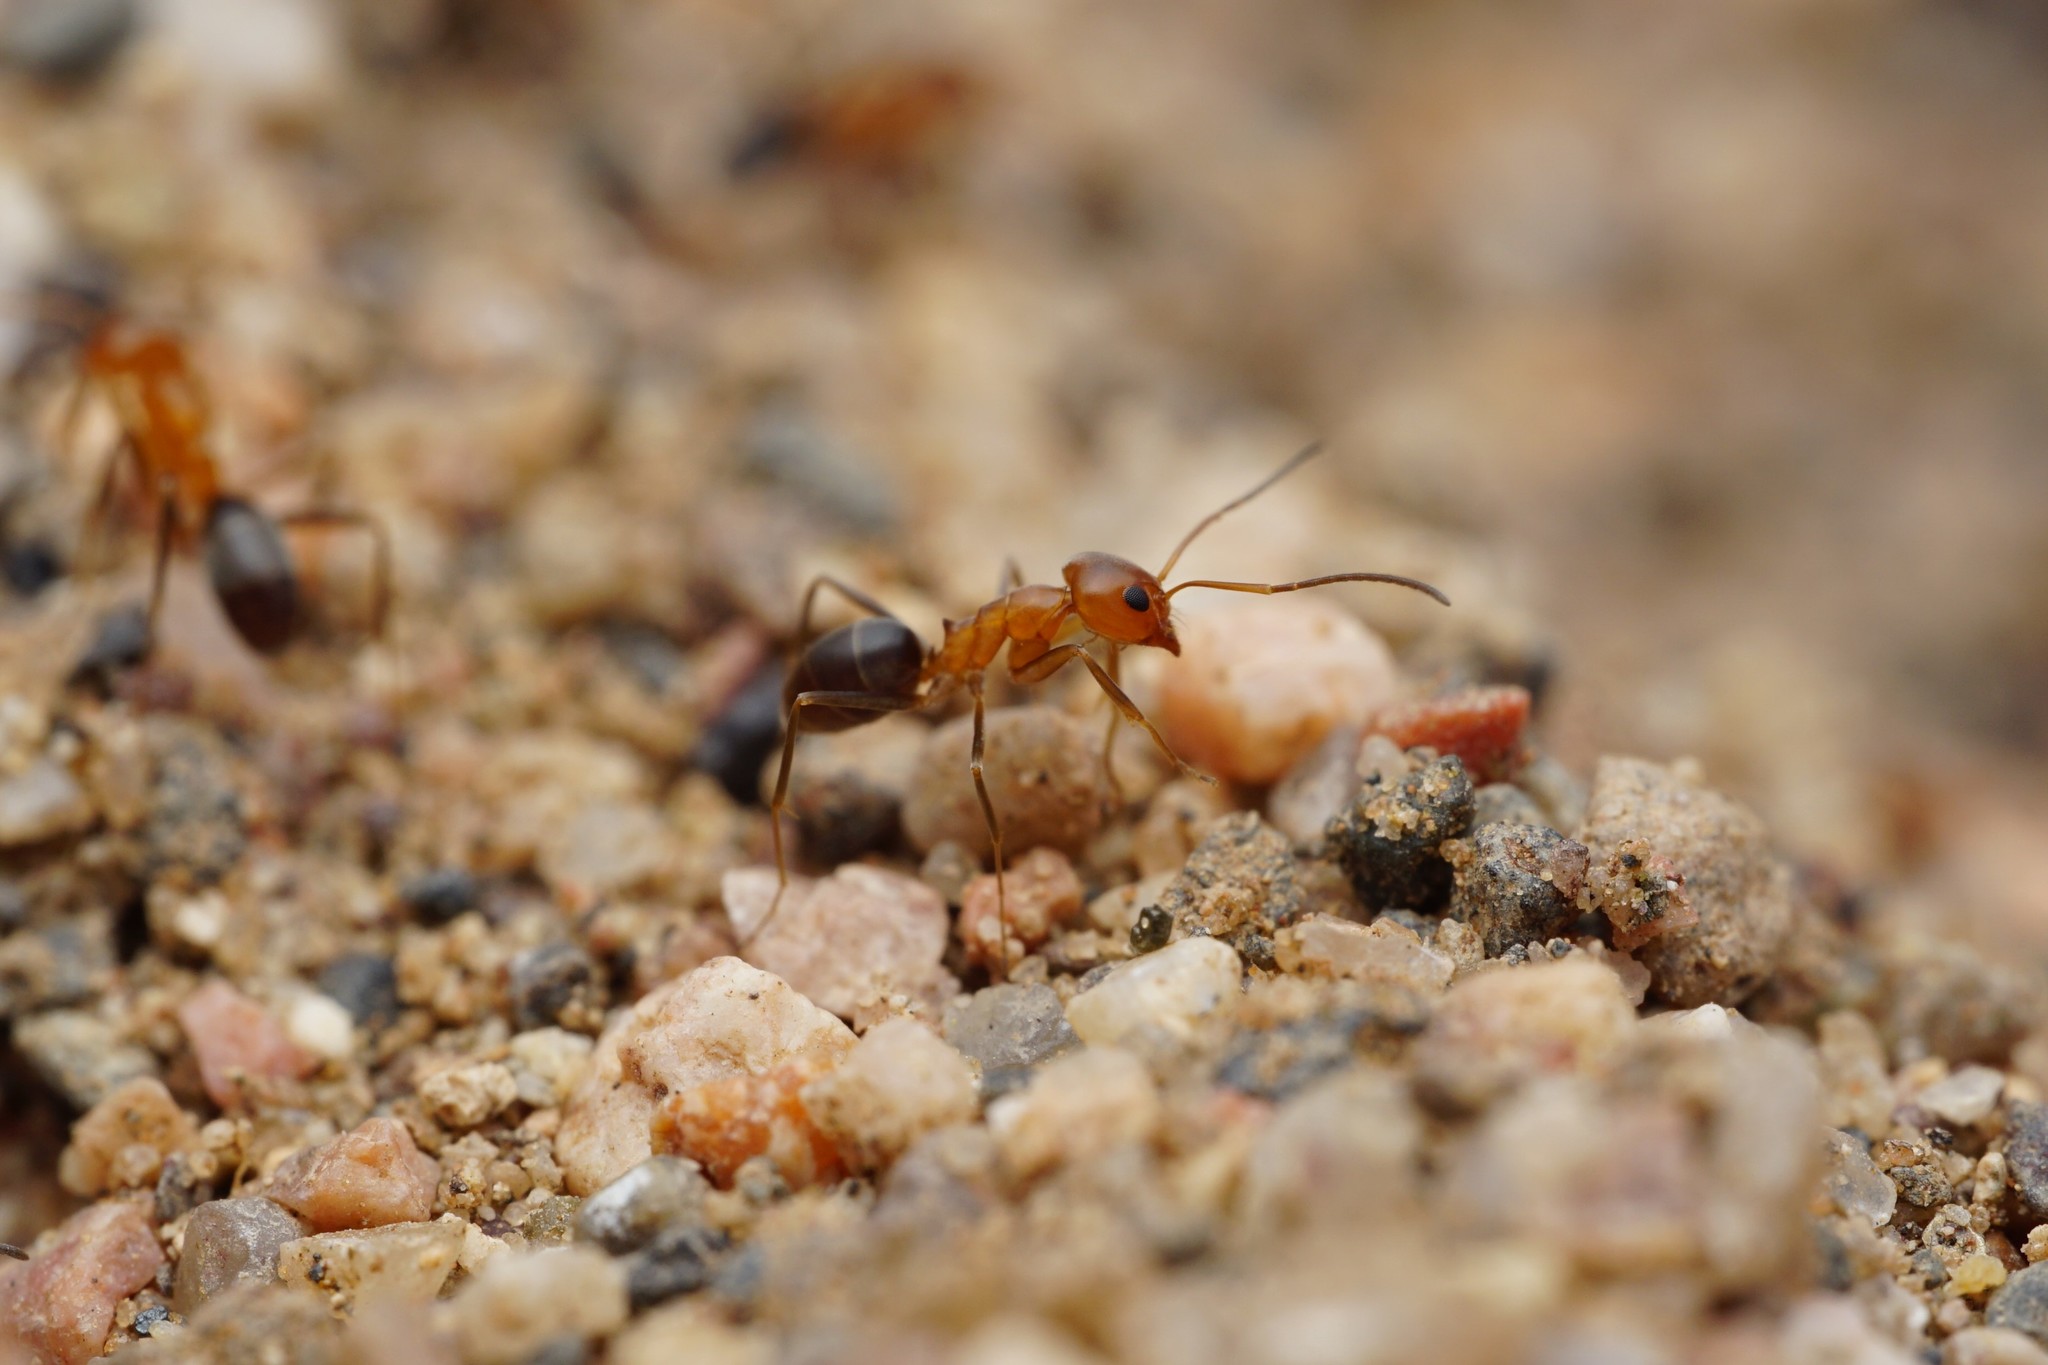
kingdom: Animalia
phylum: Arthropoda
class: Insecta
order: Hymenoptera
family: Formicidae
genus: Dorymyrmex
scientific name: Dorymyrmex bicolor
